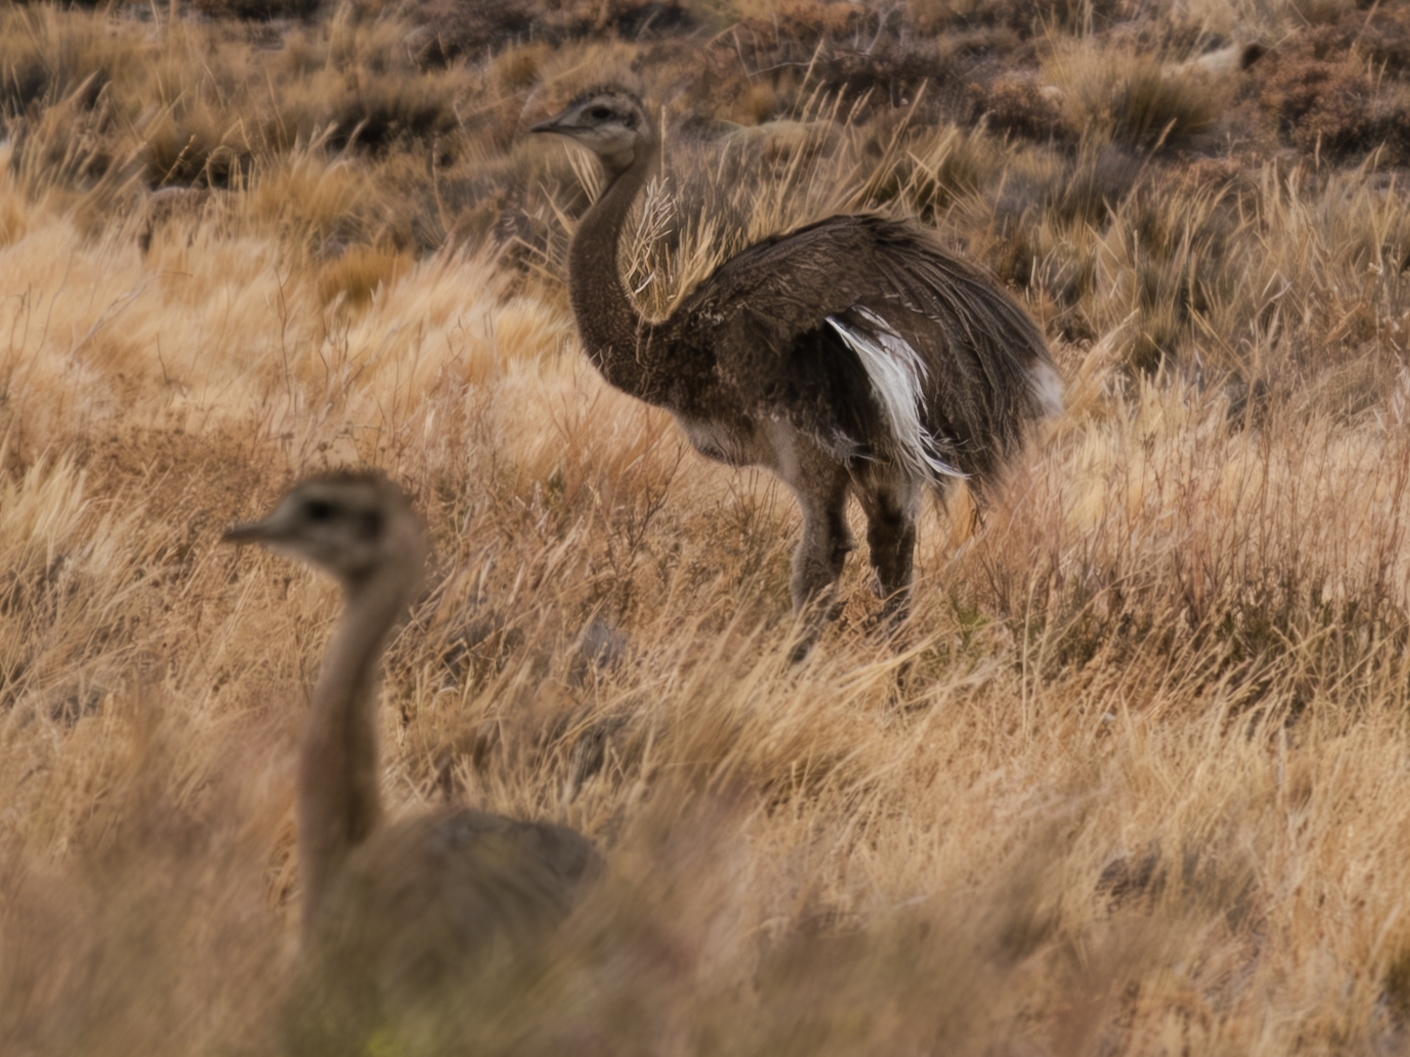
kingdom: Animalia
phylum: Chordata
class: Aves
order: Rheiformes
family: Rheidae
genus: Rhea
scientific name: Rhea pennata
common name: Lesser rhea
